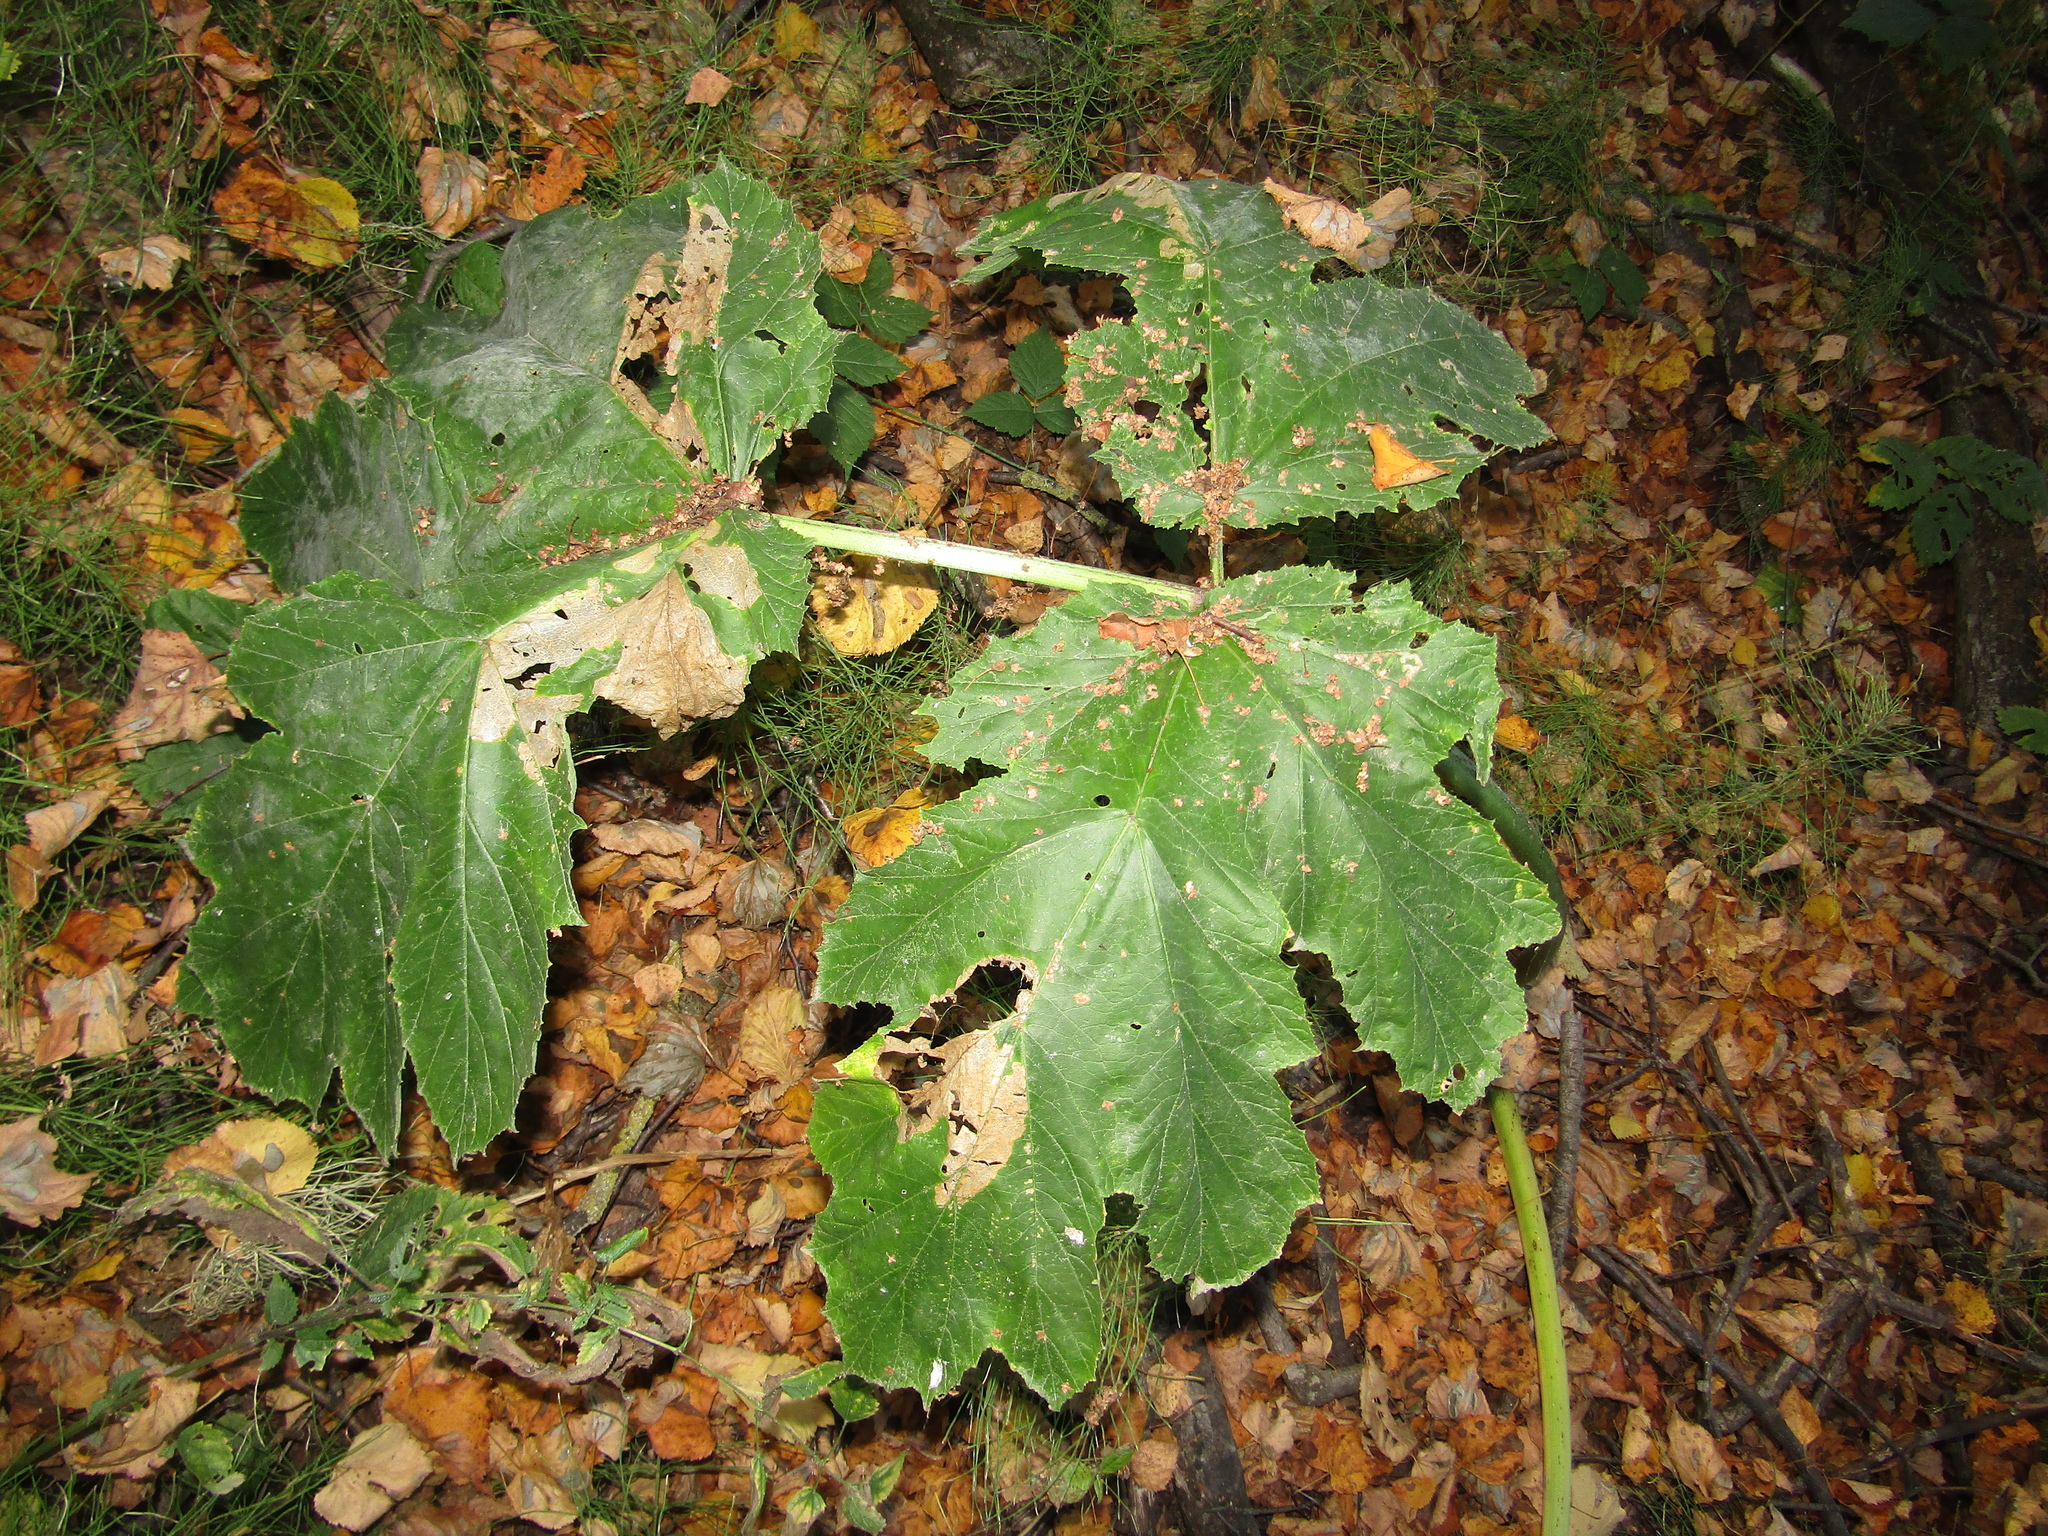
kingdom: Plantae
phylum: Tracheophyta
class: Magnoliopsida
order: Apiales
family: Apiaceae
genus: Heracleum
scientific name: Heracleum sosnowskyi
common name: Sosnowsky's hogweed
